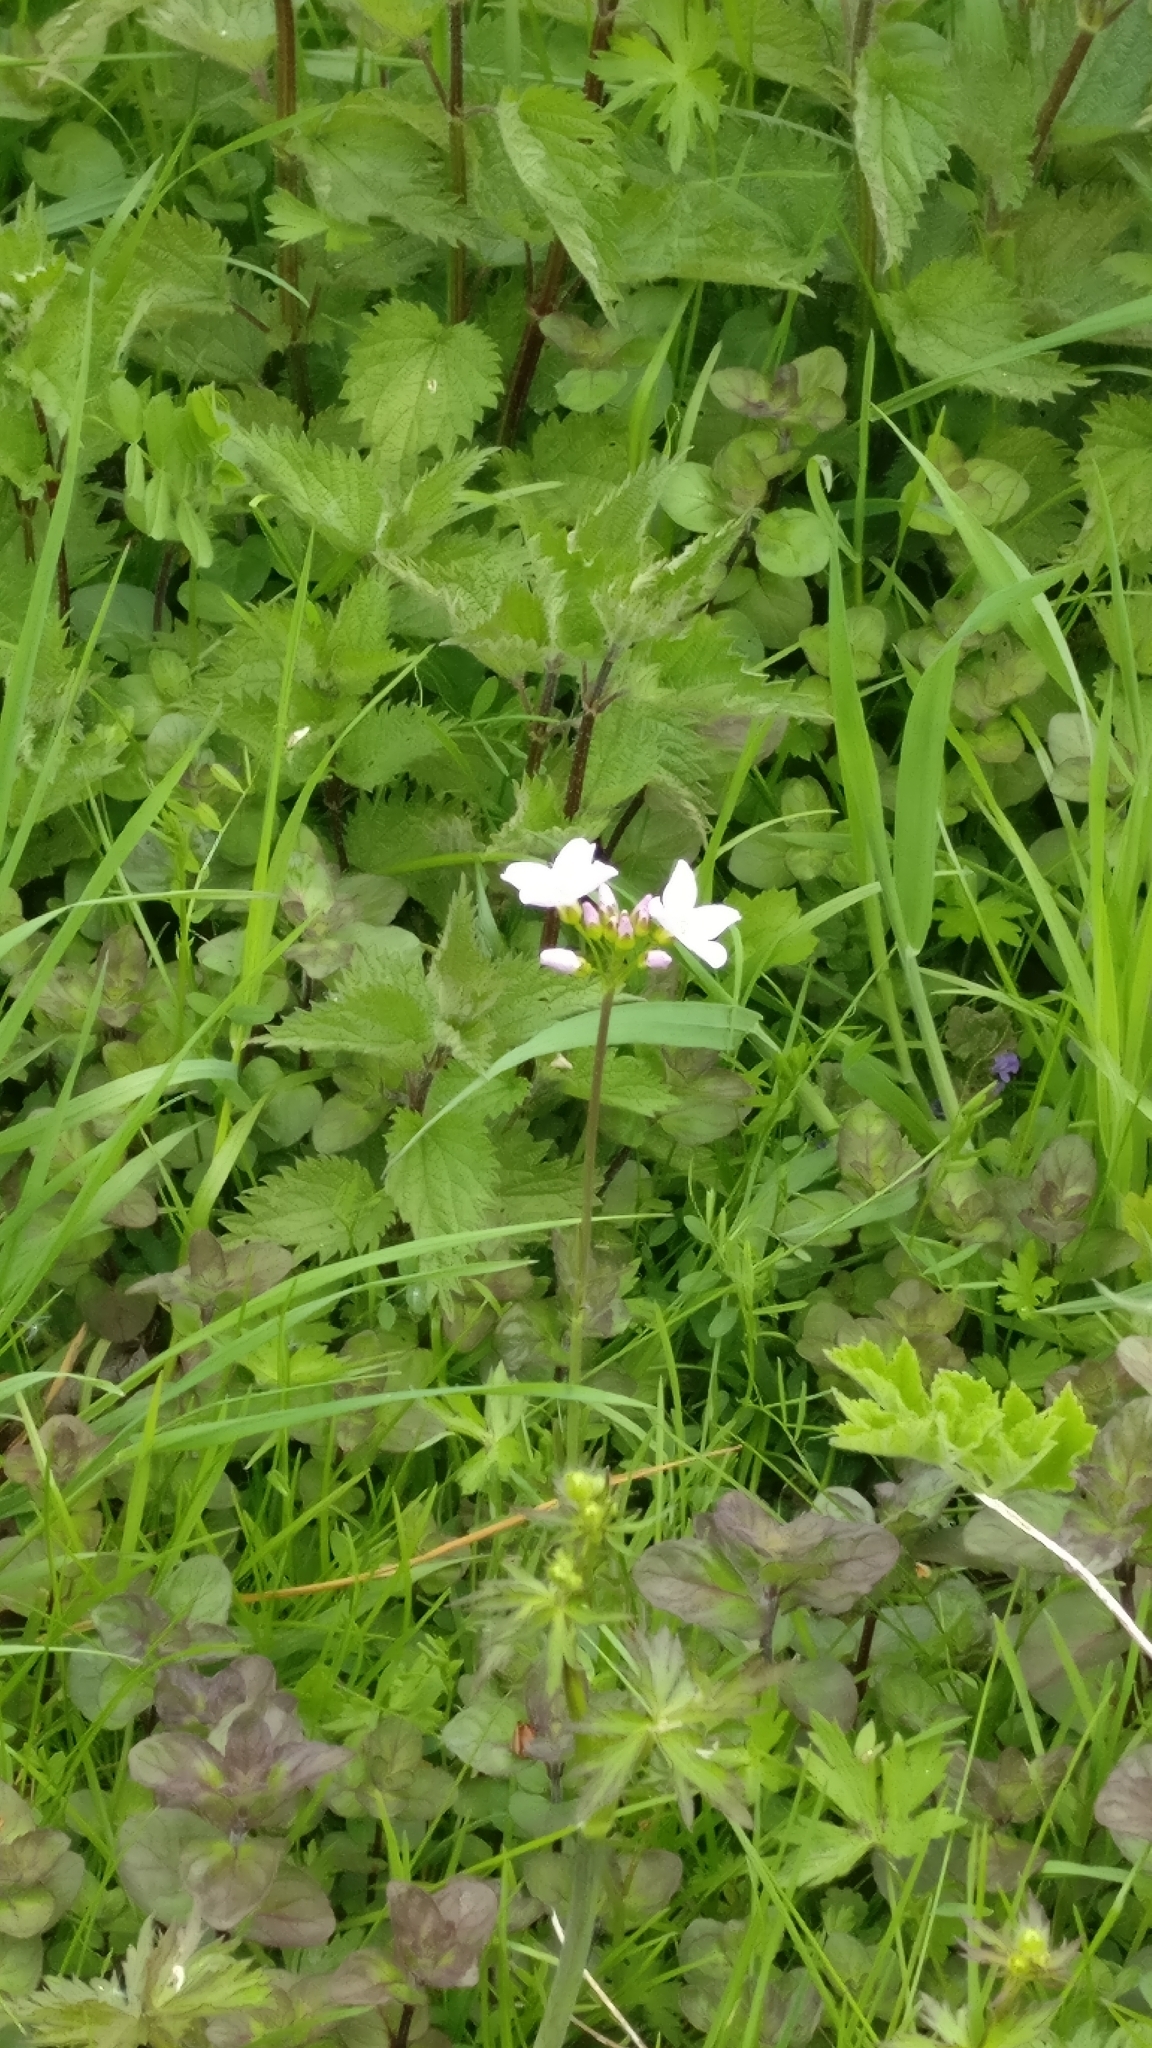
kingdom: Plantae
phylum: Tracheophyta
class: Magnoliopsida
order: Brassicales
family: Brassicaceae
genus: Cardamine
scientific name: Cardamine pratensis
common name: Cuckoo flower
